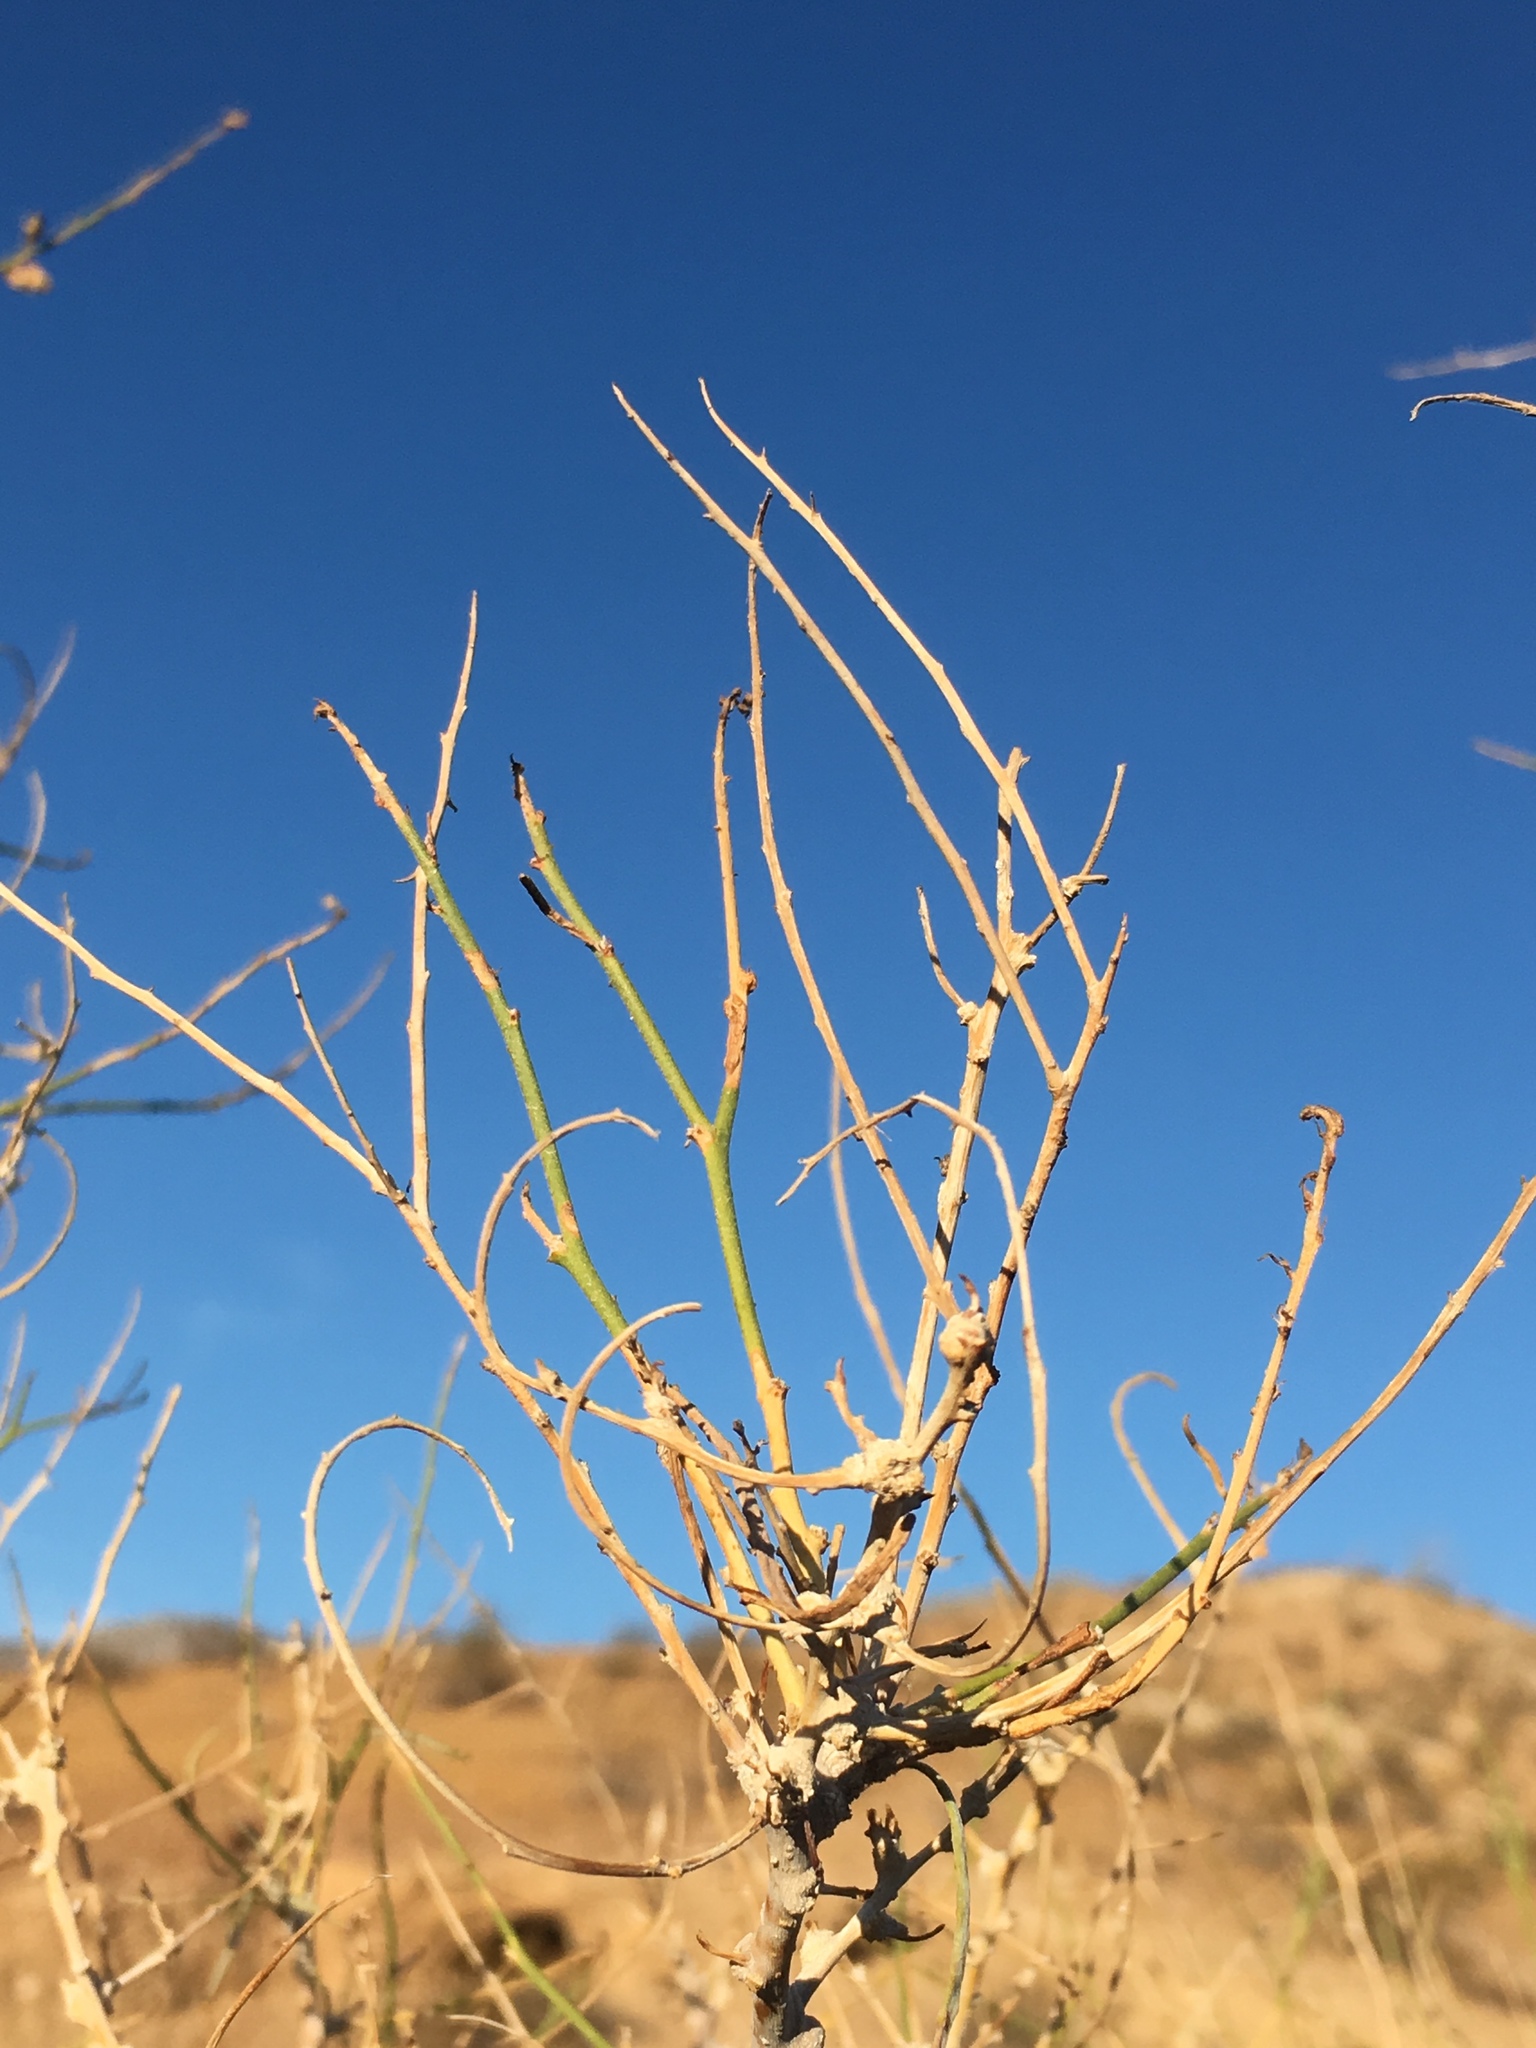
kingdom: Plantae
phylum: Tracheophyta
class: Magnoliopsida
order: Fabales
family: Fabaceae
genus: Psorothamnus
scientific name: Psorothamnus schottii
